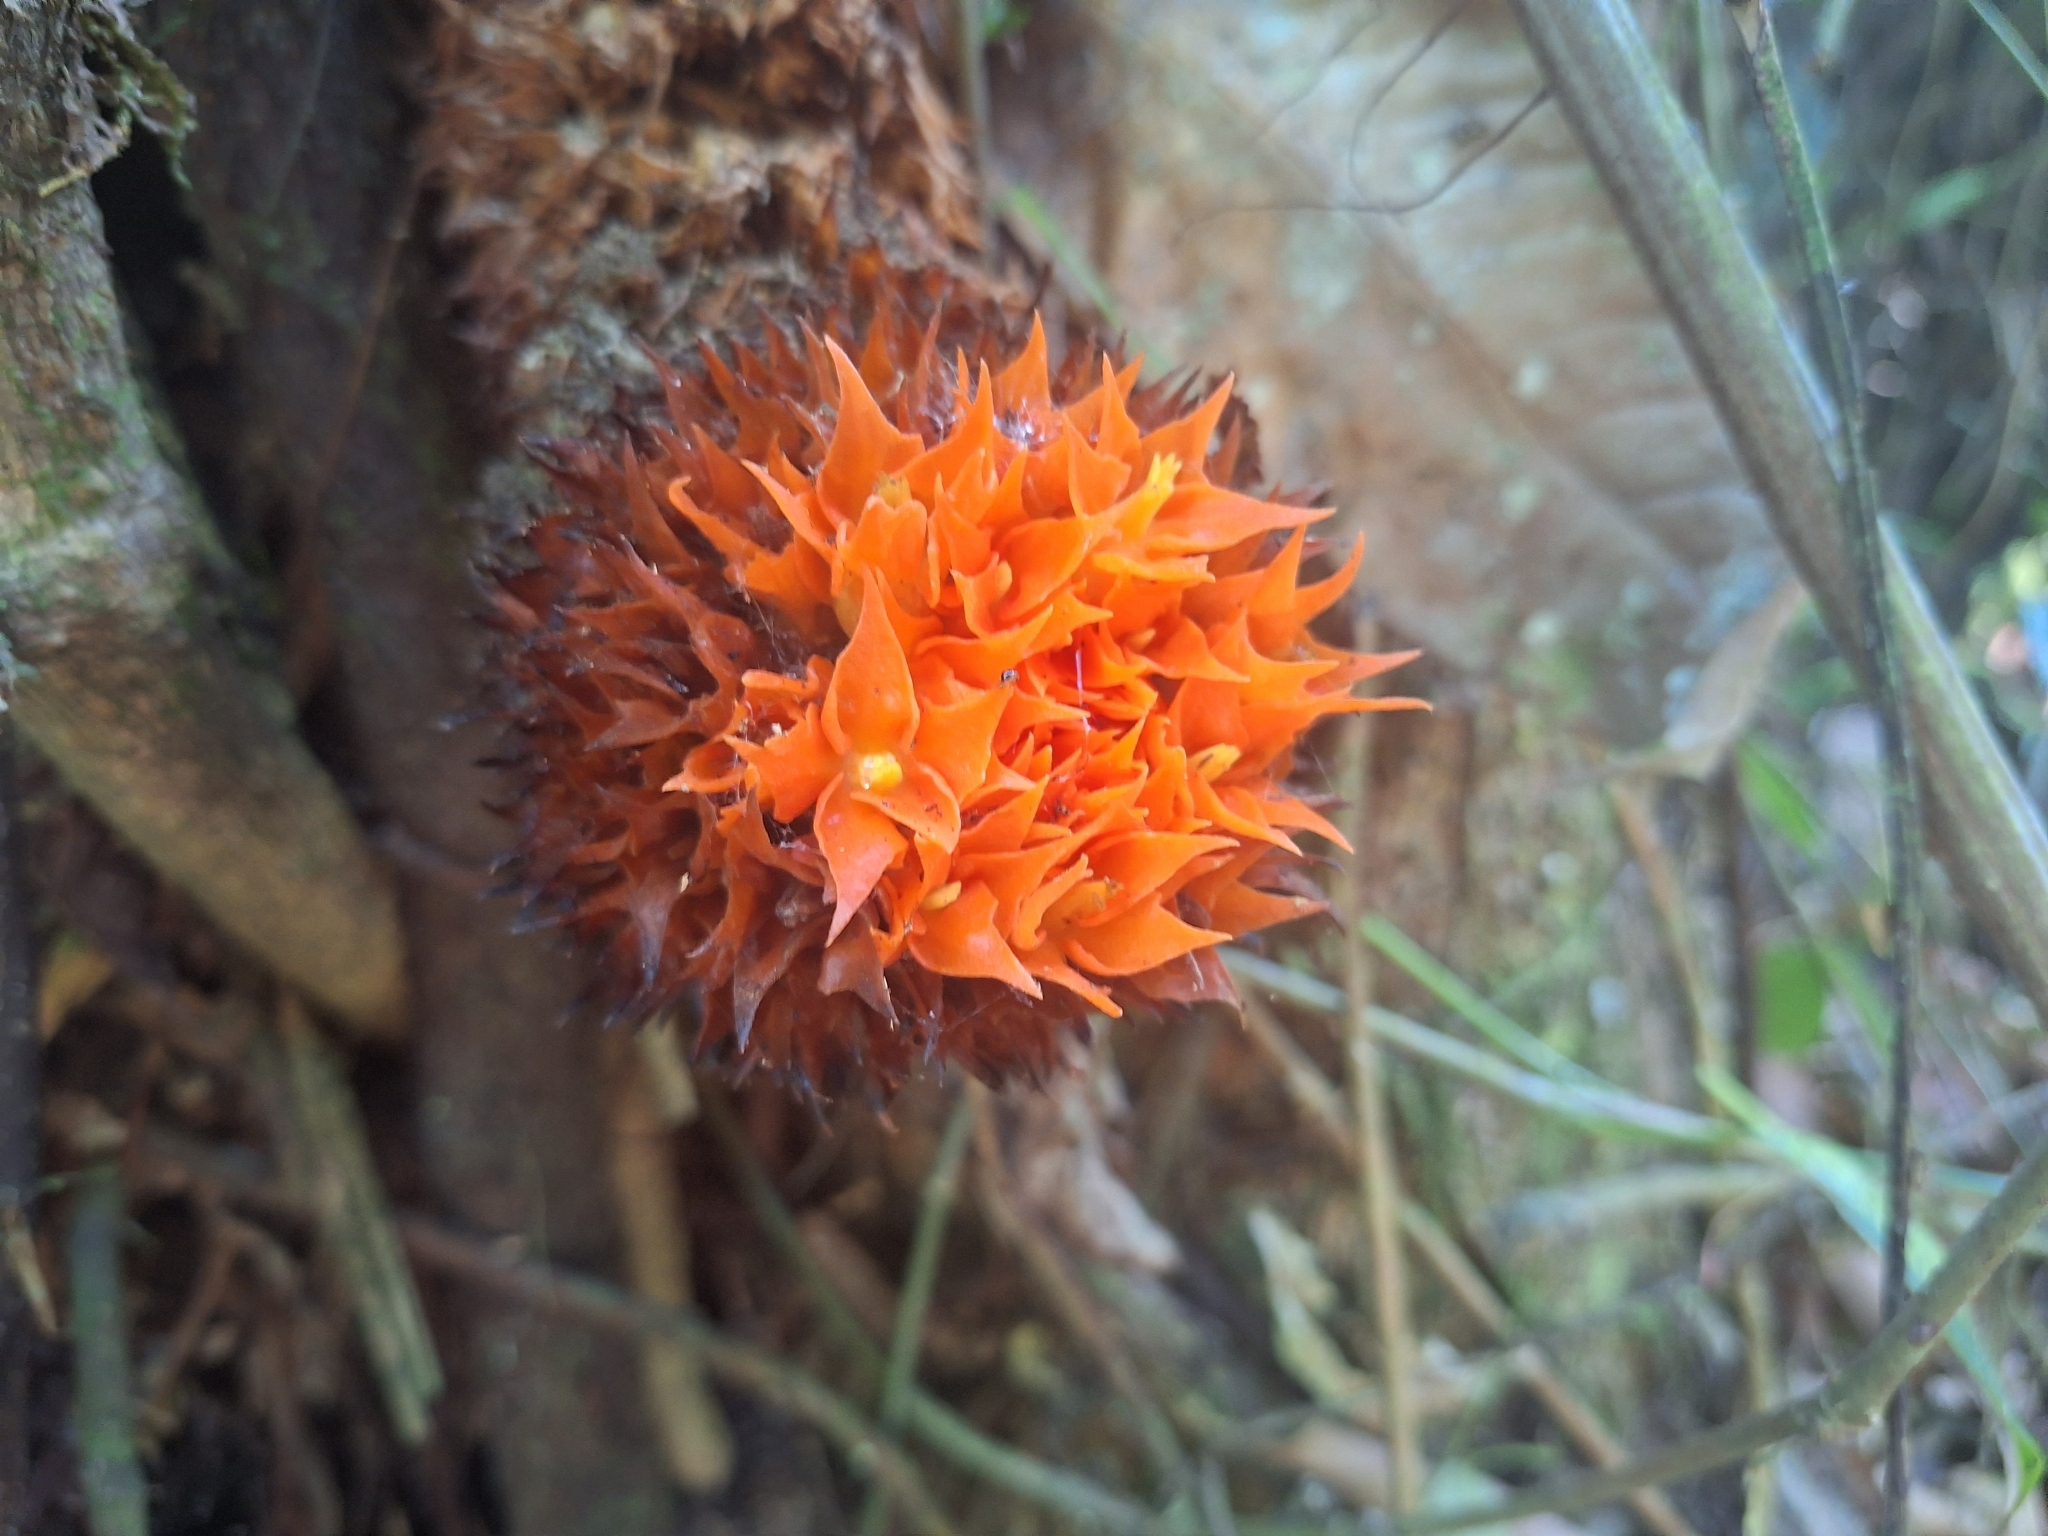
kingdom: Plantae
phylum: Tracheophyta
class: Magnoliopsida
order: Cucurbitales
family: Cucurbitaceae
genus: Gurania
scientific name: Gurania rhizantha
